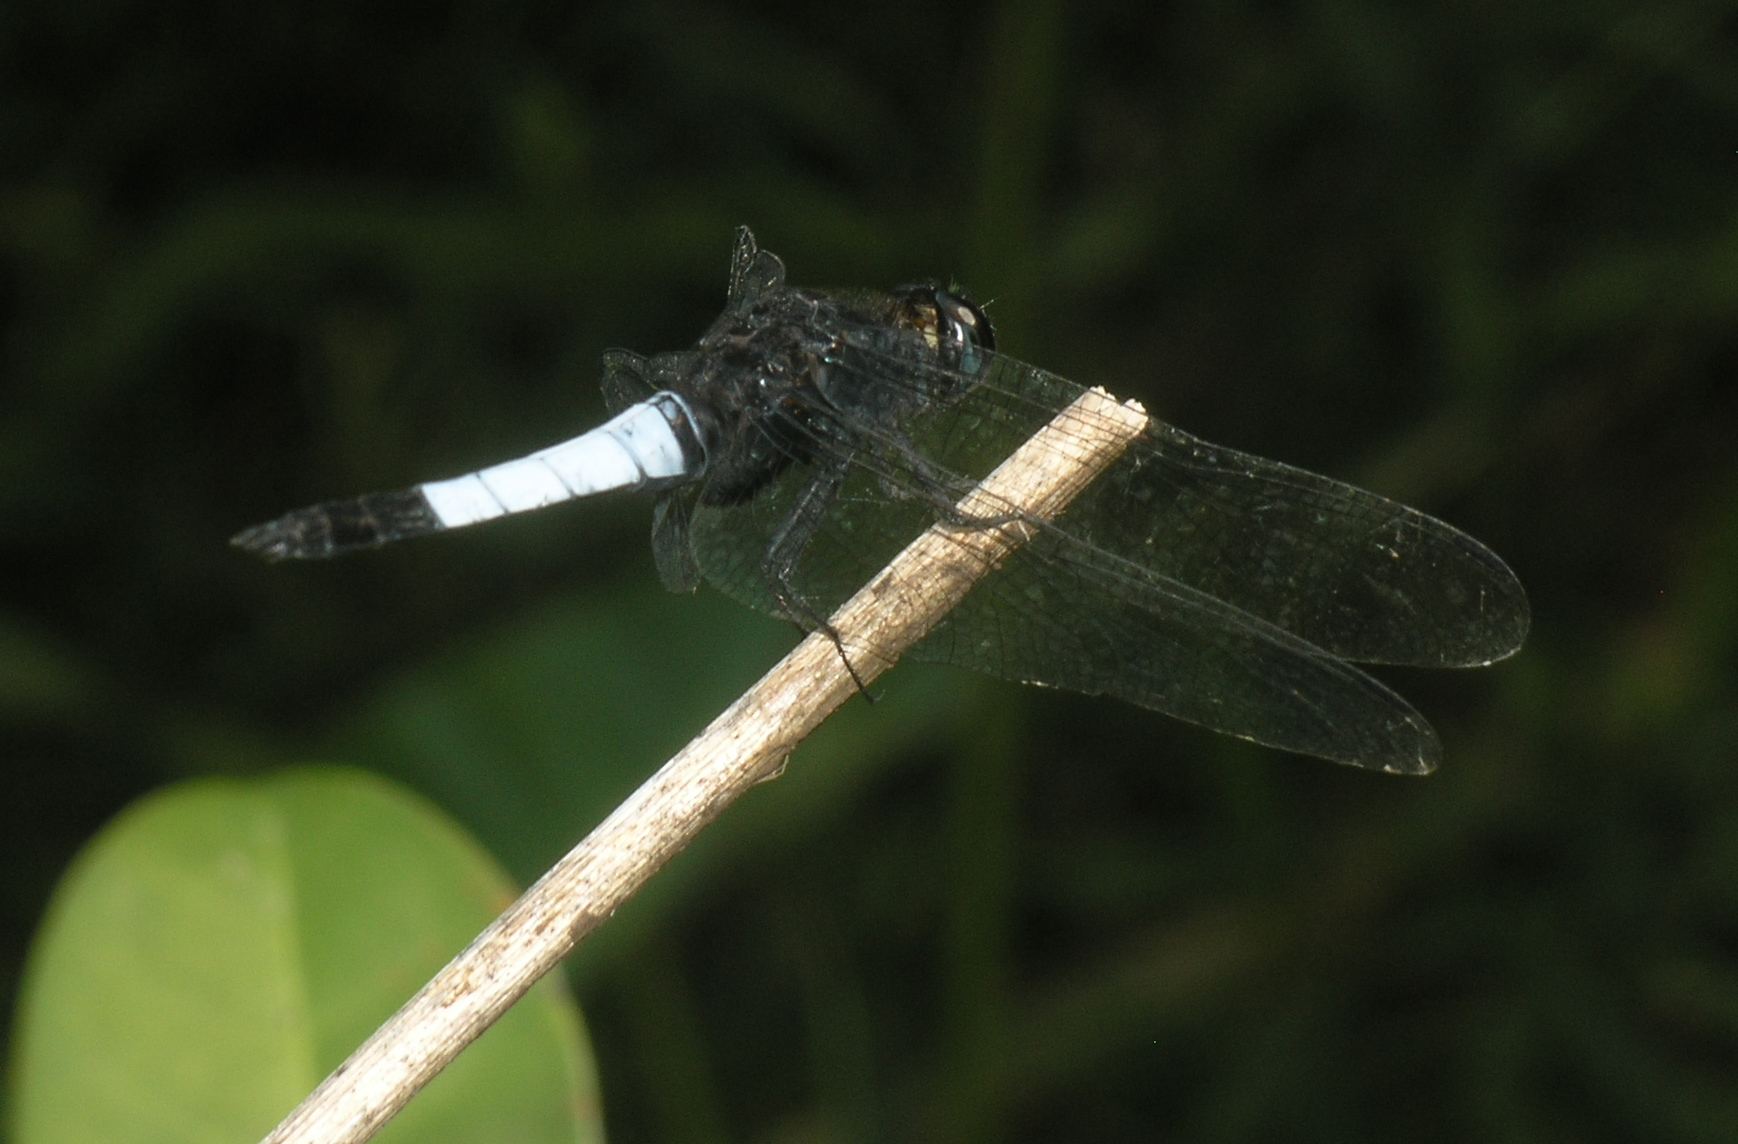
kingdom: Animalia
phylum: Arthropoda
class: Insecta
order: Odonata
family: Libellulidae
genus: Orthetrum
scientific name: Orthetrum triangulare
